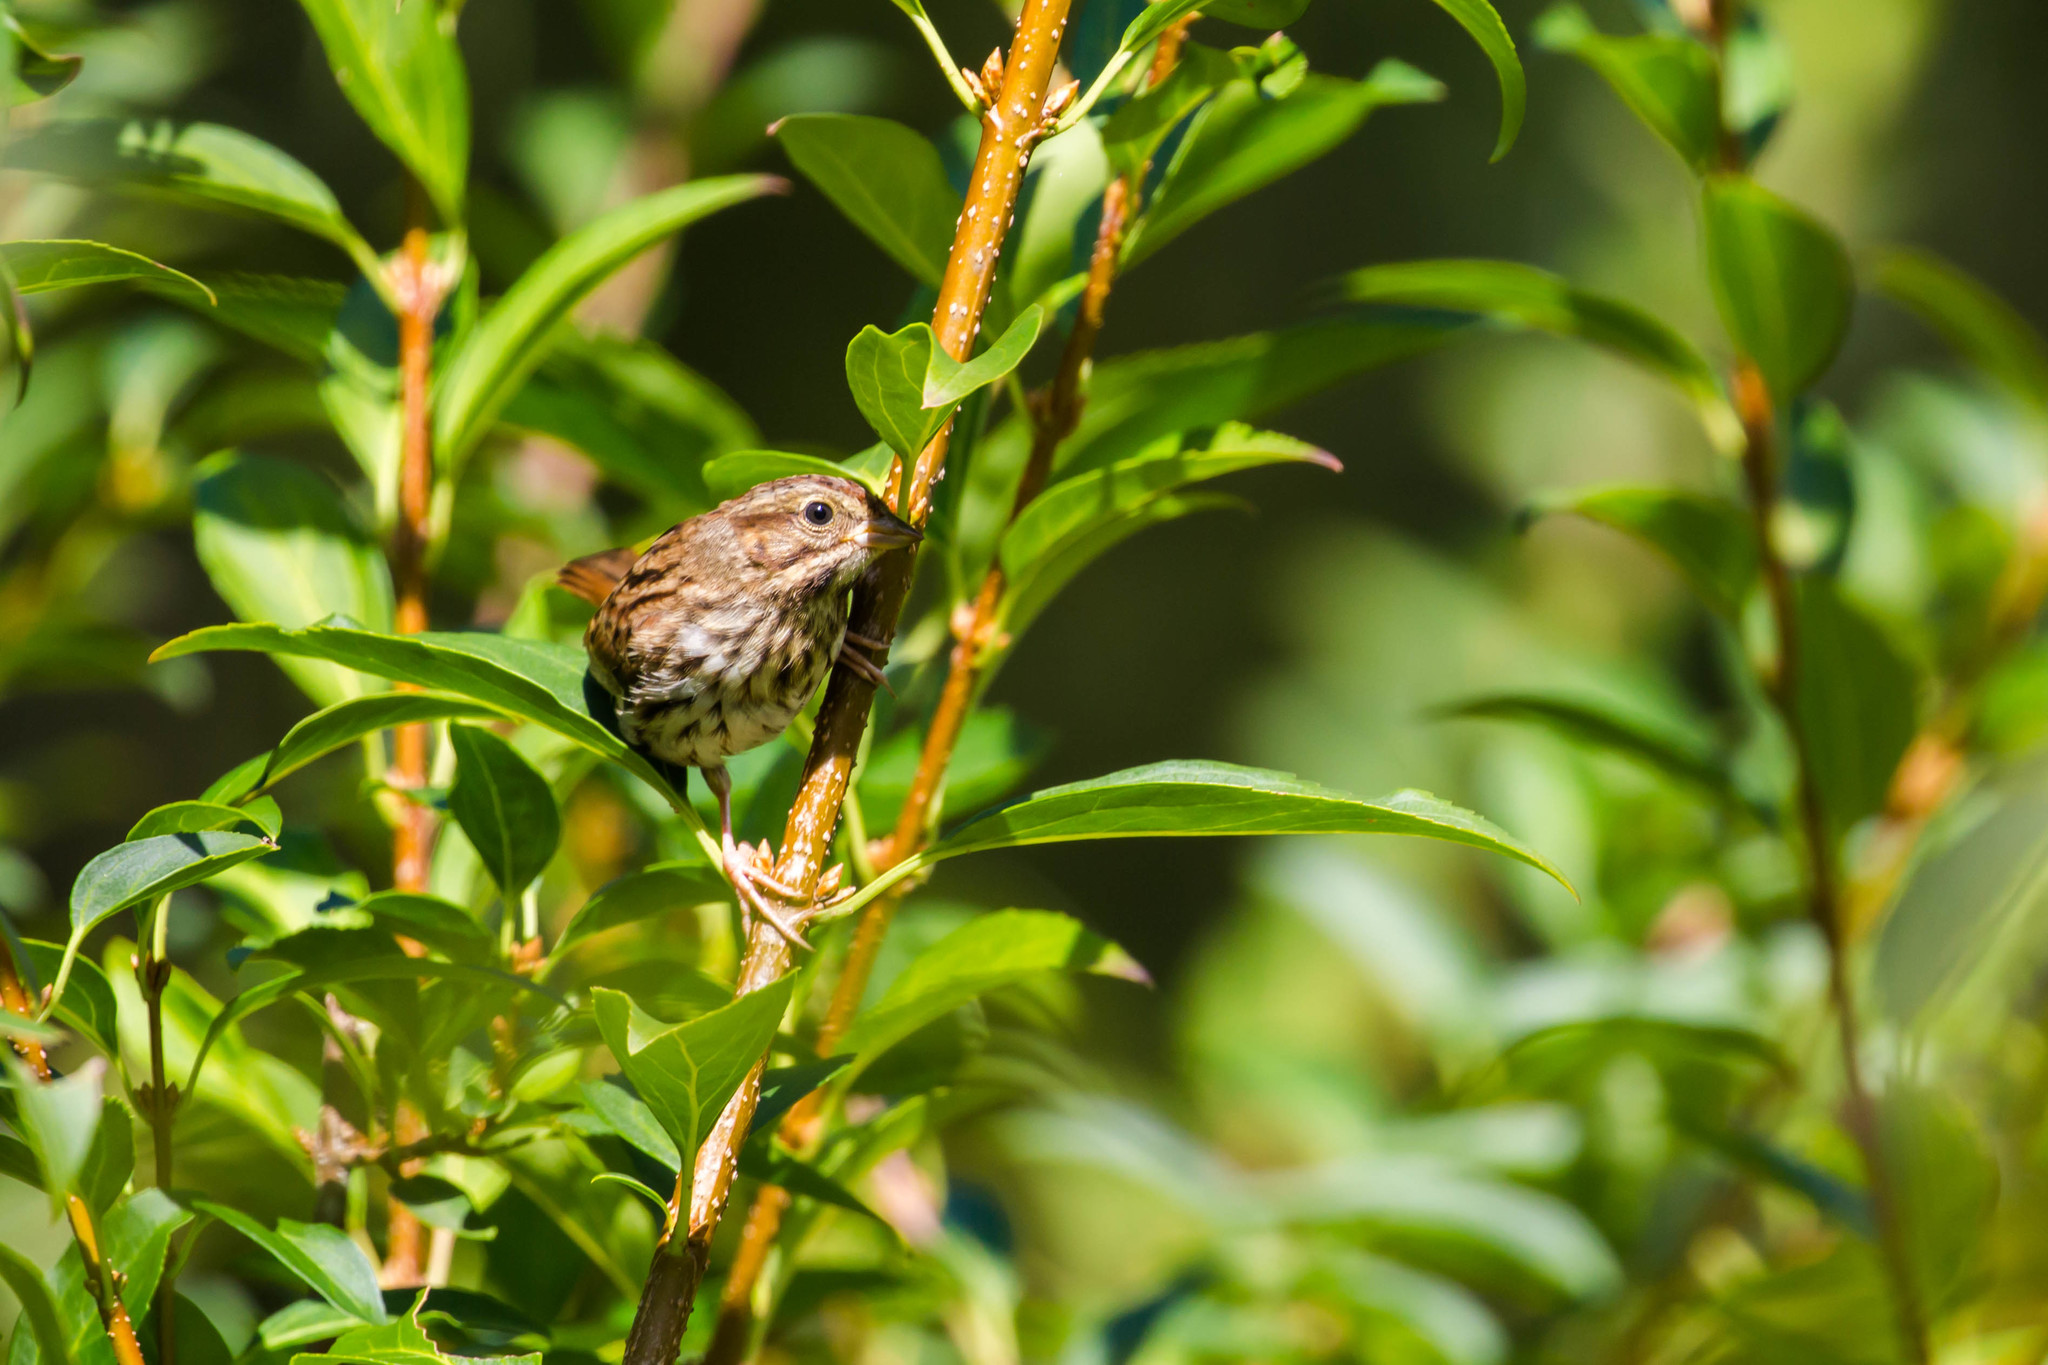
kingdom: Animalia
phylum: Chordata
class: Aves
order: Passeriformes
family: Passerellidae
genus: Melospiza
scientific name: Melospiza melodia
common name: Song sparrow
